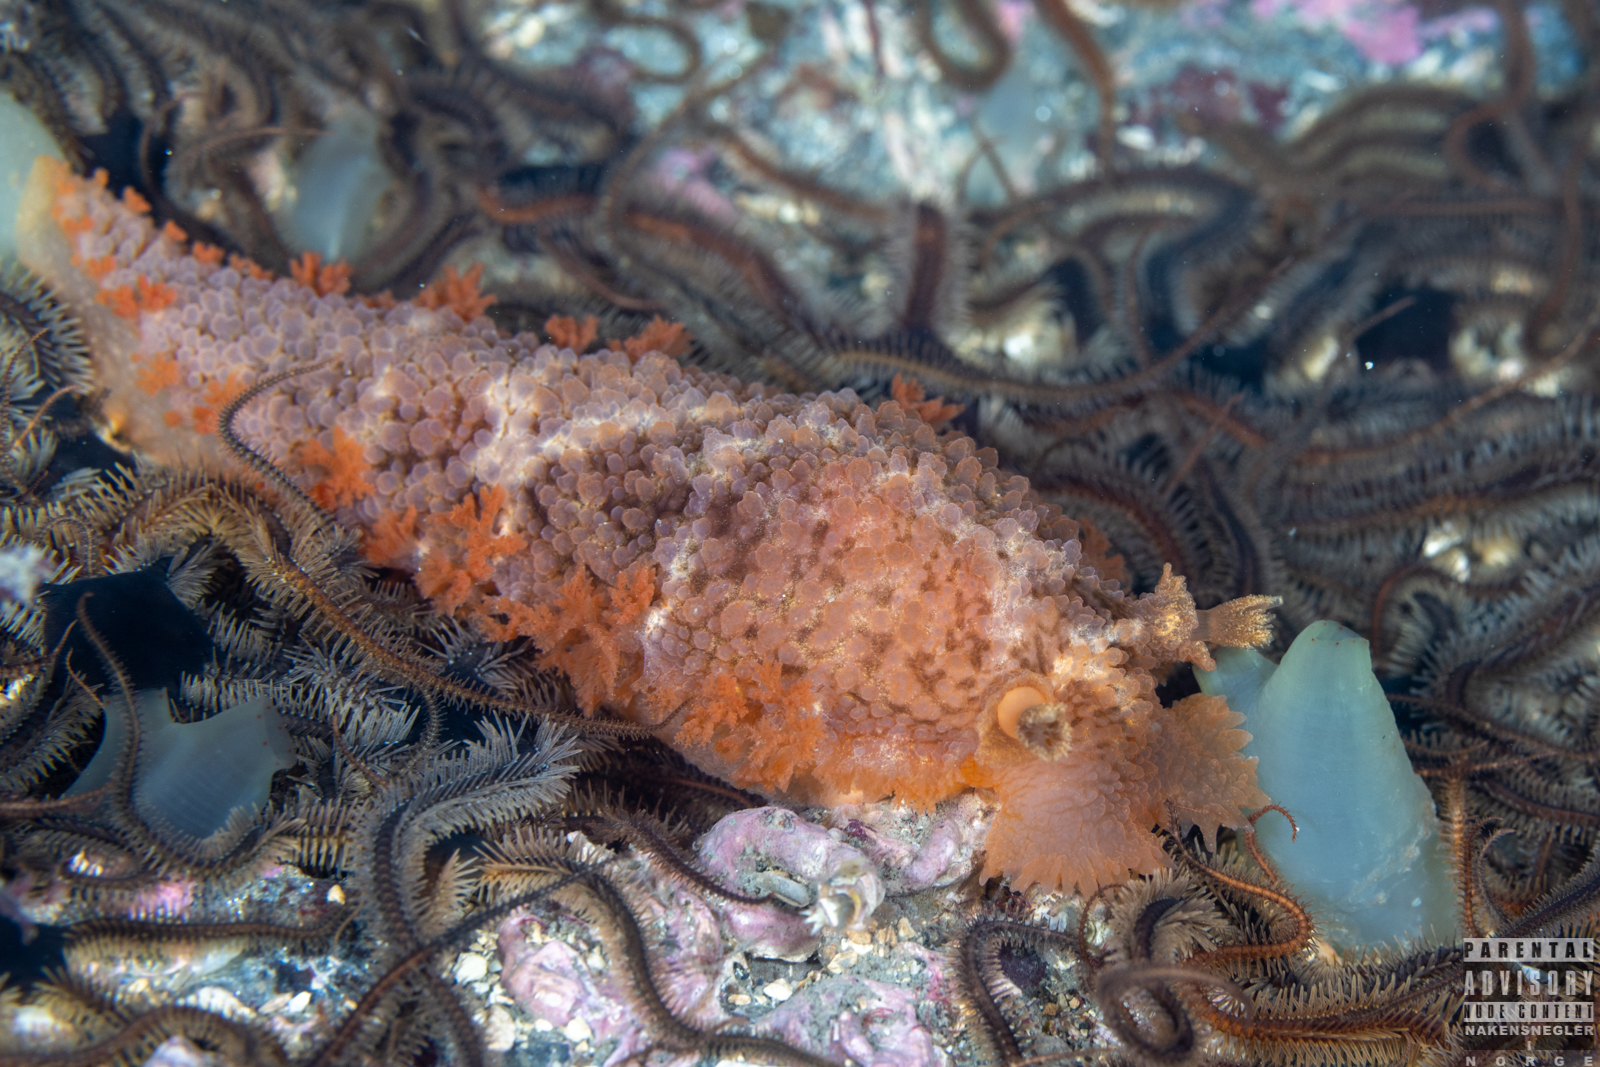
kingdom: Animalia
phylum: Mollusca
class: Gastropoda
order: Nudibranchia
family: Tritoniidae
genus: Tritonia
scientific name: Tritonia hombergii
